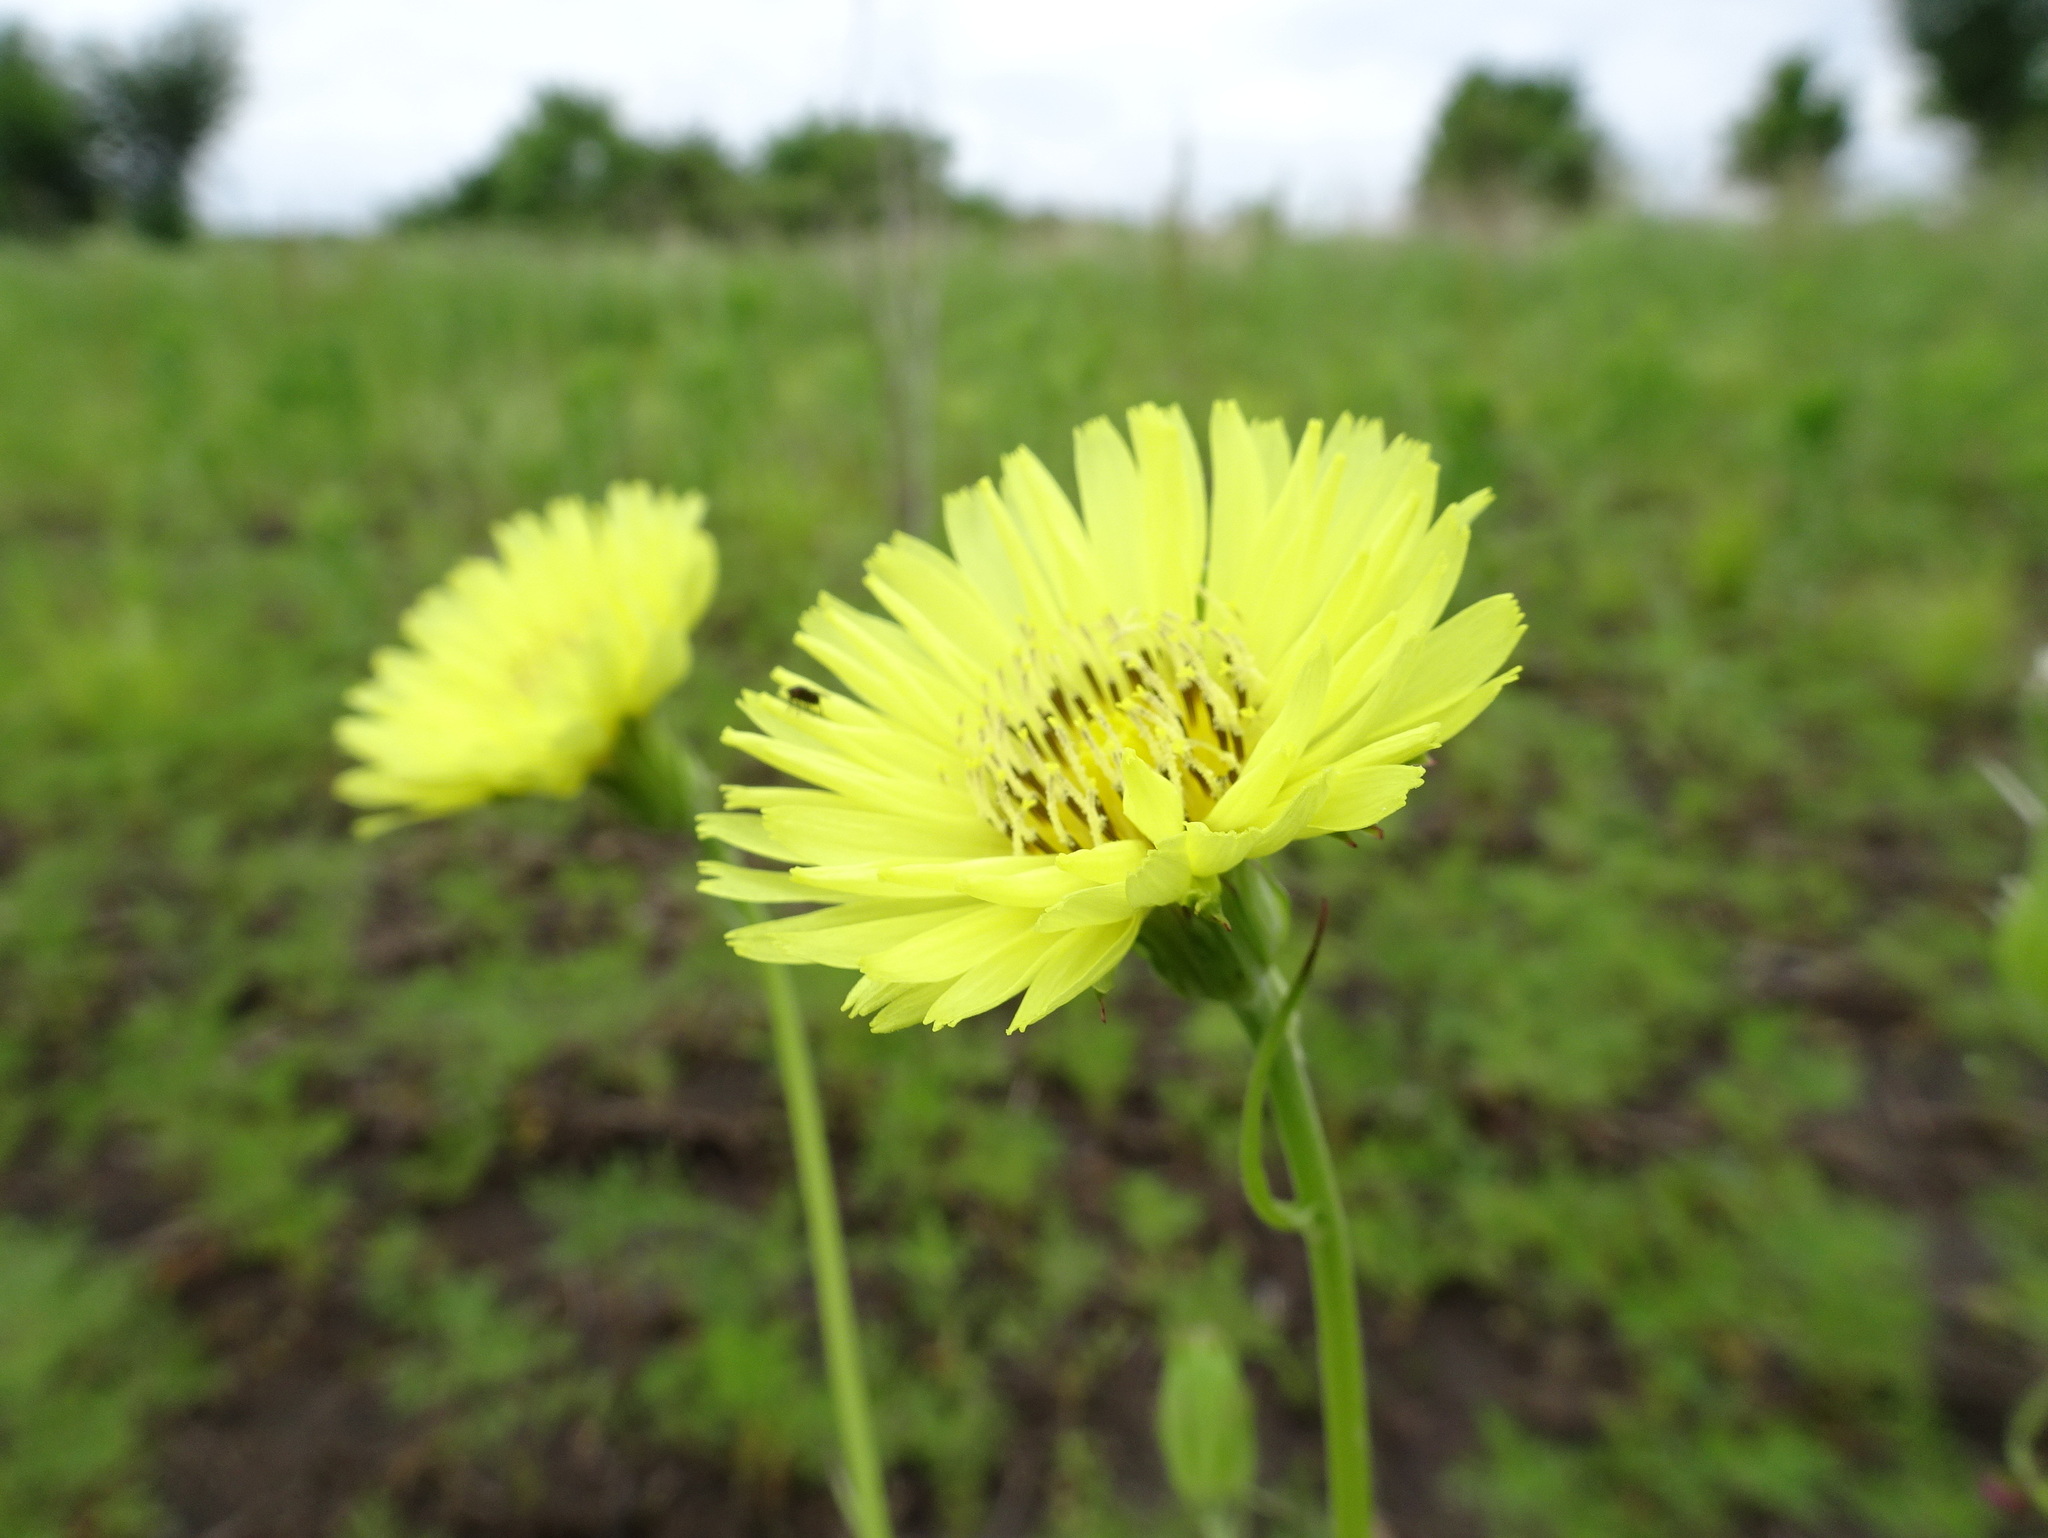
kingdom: Plantae
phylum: Tracheophyta
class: Magnoliopsida
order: Asterales
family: Asteraceae
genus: Pyrrhopappus
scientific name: Pyrrhopappus carolinianus
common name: Carolina desert-chicory
